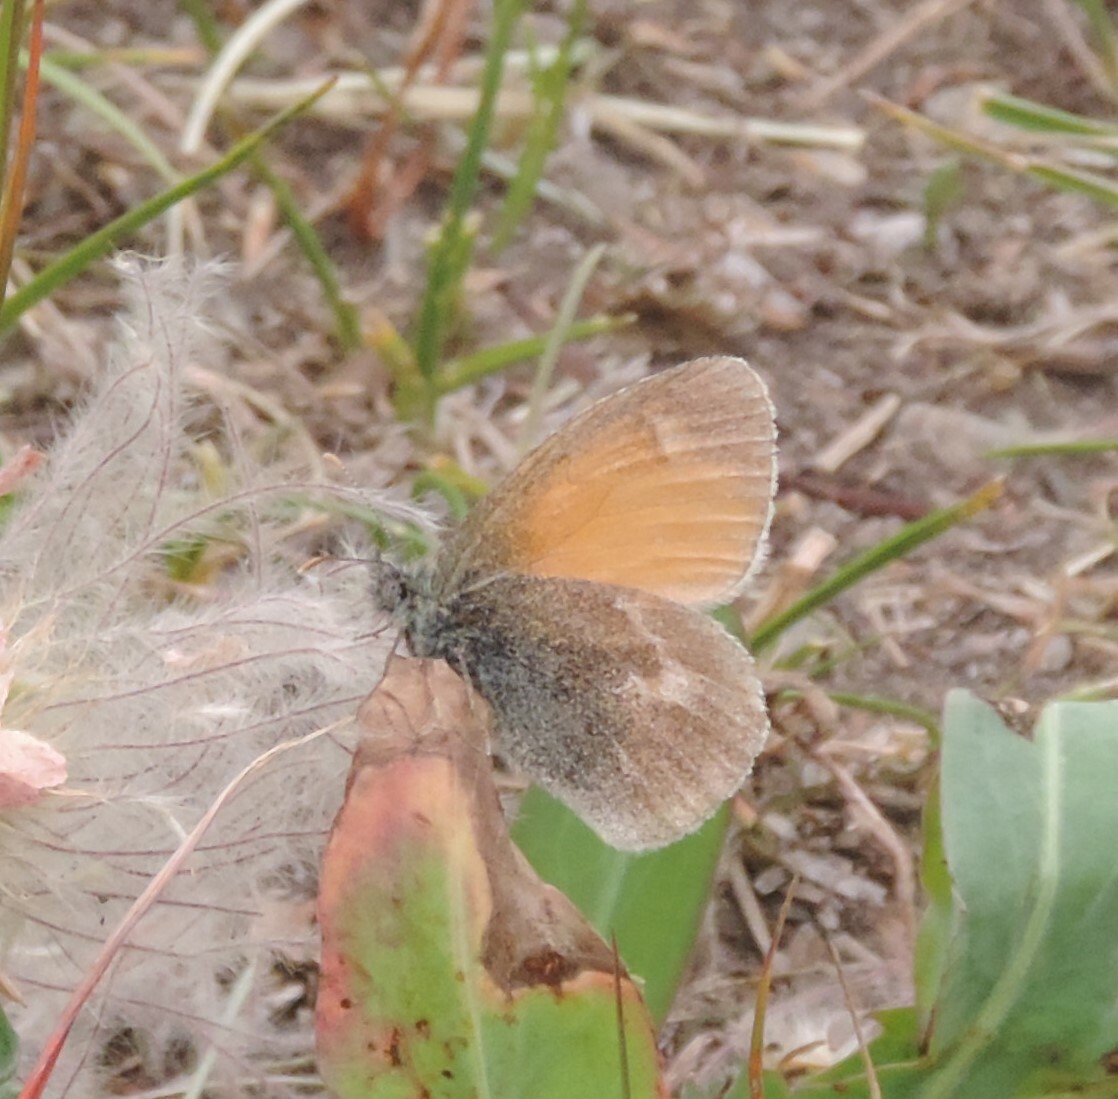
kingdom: Animalia
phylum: Arthropoda
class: Insecta
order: Lepidoptera
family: Nymphalidae
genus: Coenonympha
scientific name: Coenonympha california
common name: Common ringlet
